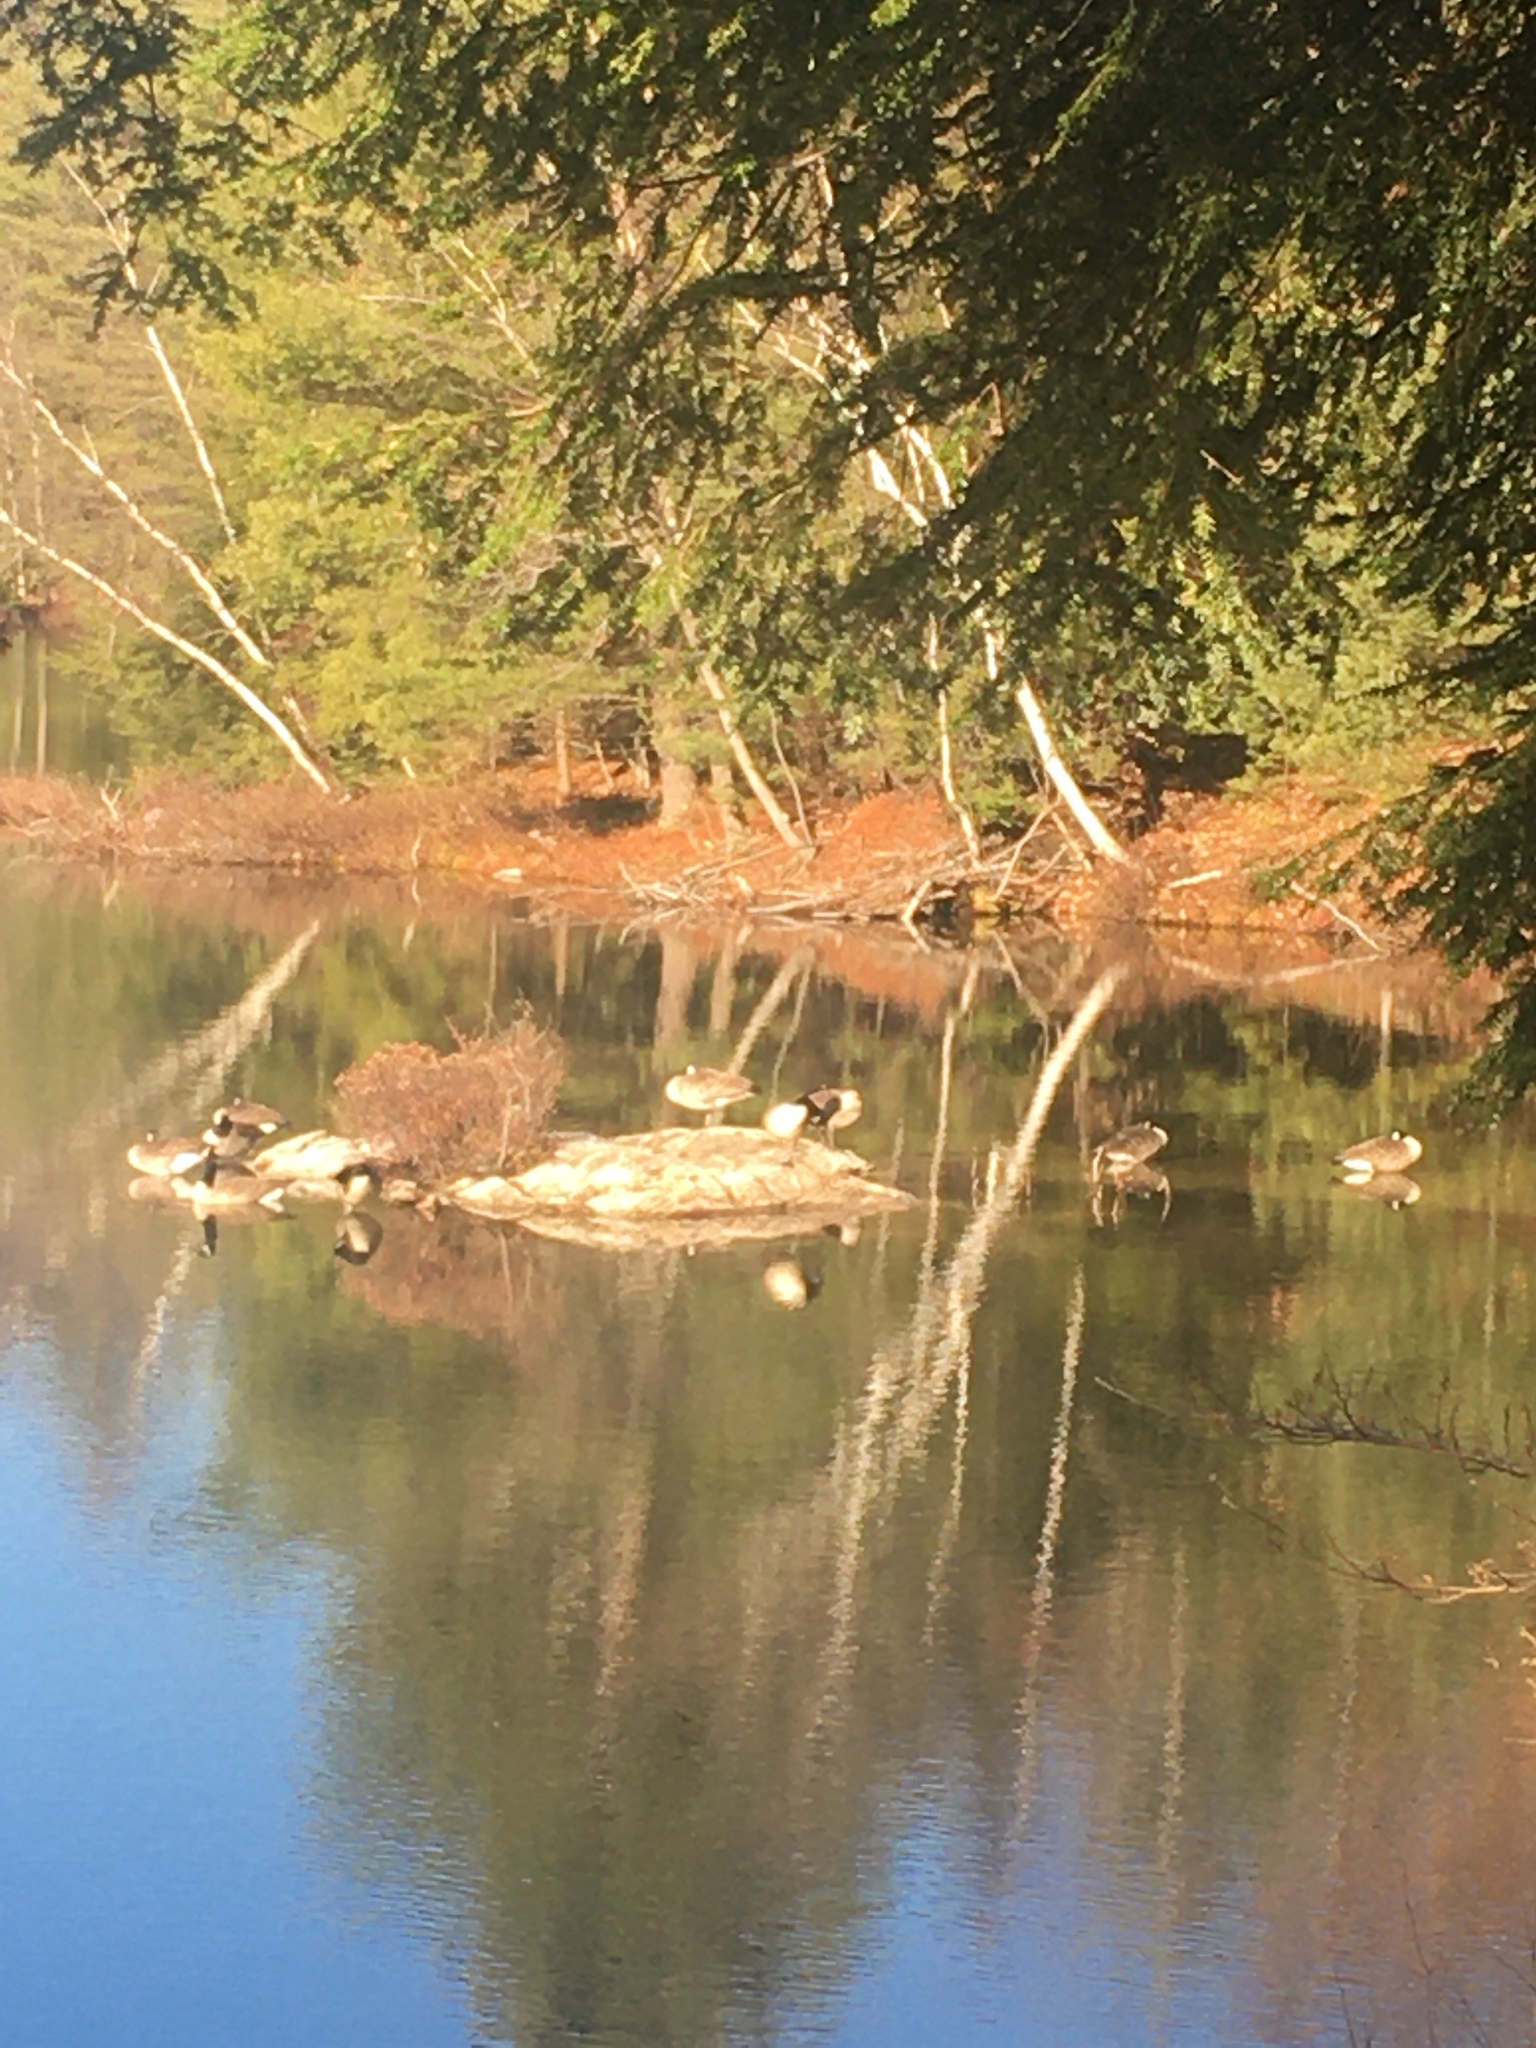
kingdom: Animalia
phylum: Chordata
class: Aves
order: Anseriformes
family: Anatidae
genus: Branta
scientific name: Branta canadensis
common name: Canada goose
